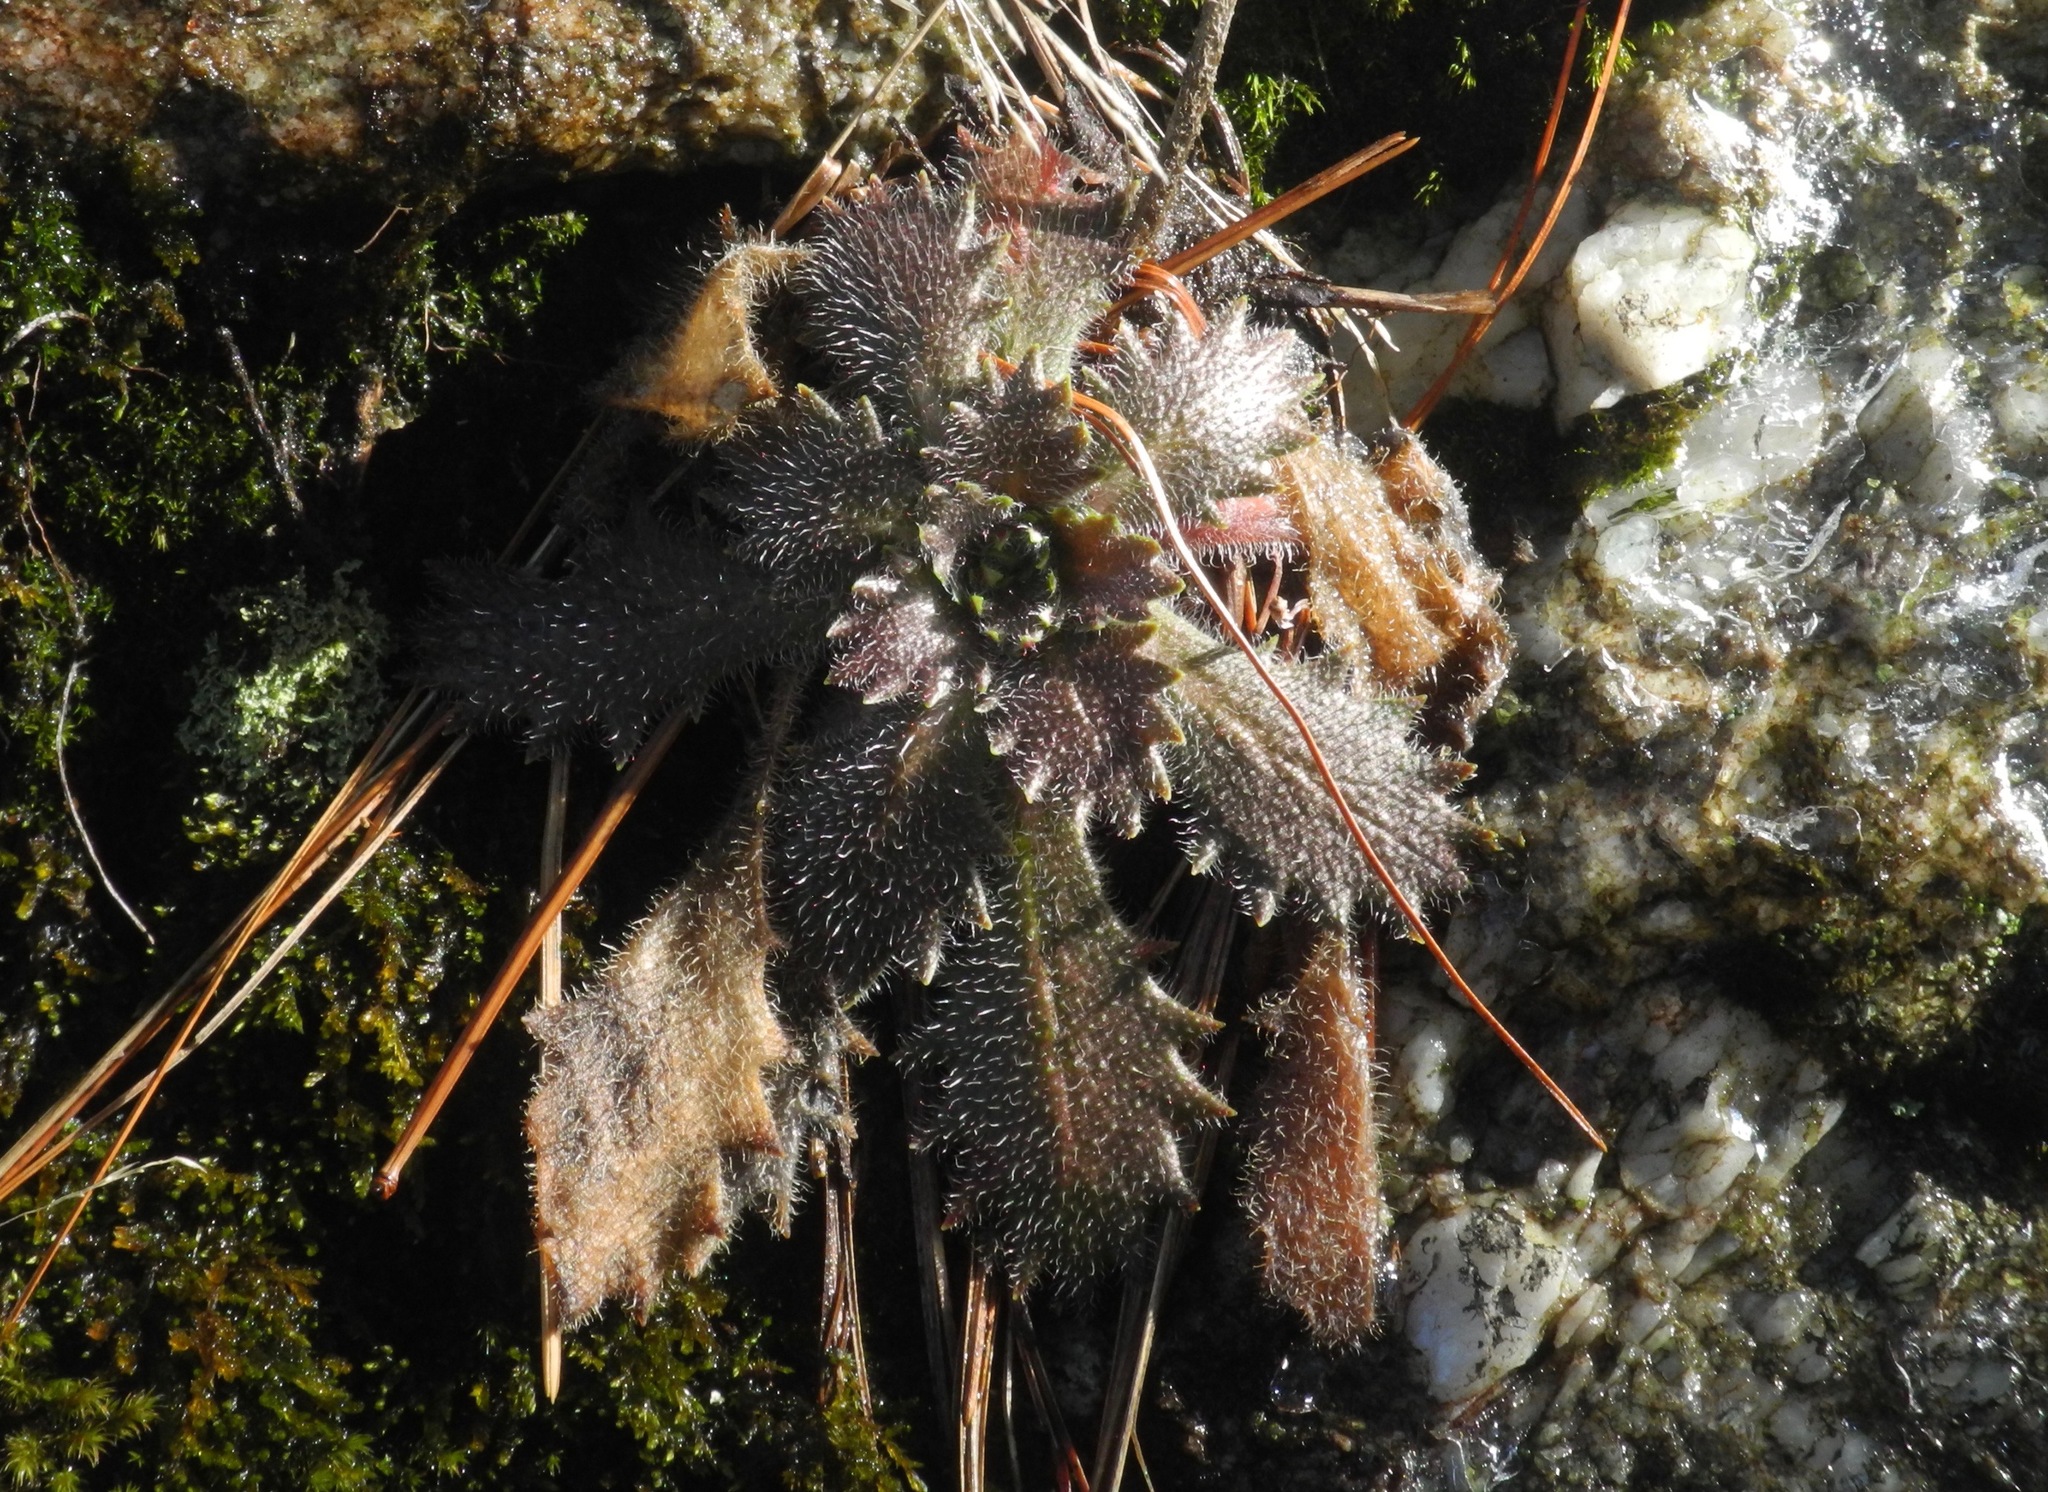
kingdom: Plantae
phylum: Tracheophyta
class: Magnoliopsida
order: Saxifragales
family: Saxifragaceae
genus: Micranthes
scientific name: Micranthes petiolaris
